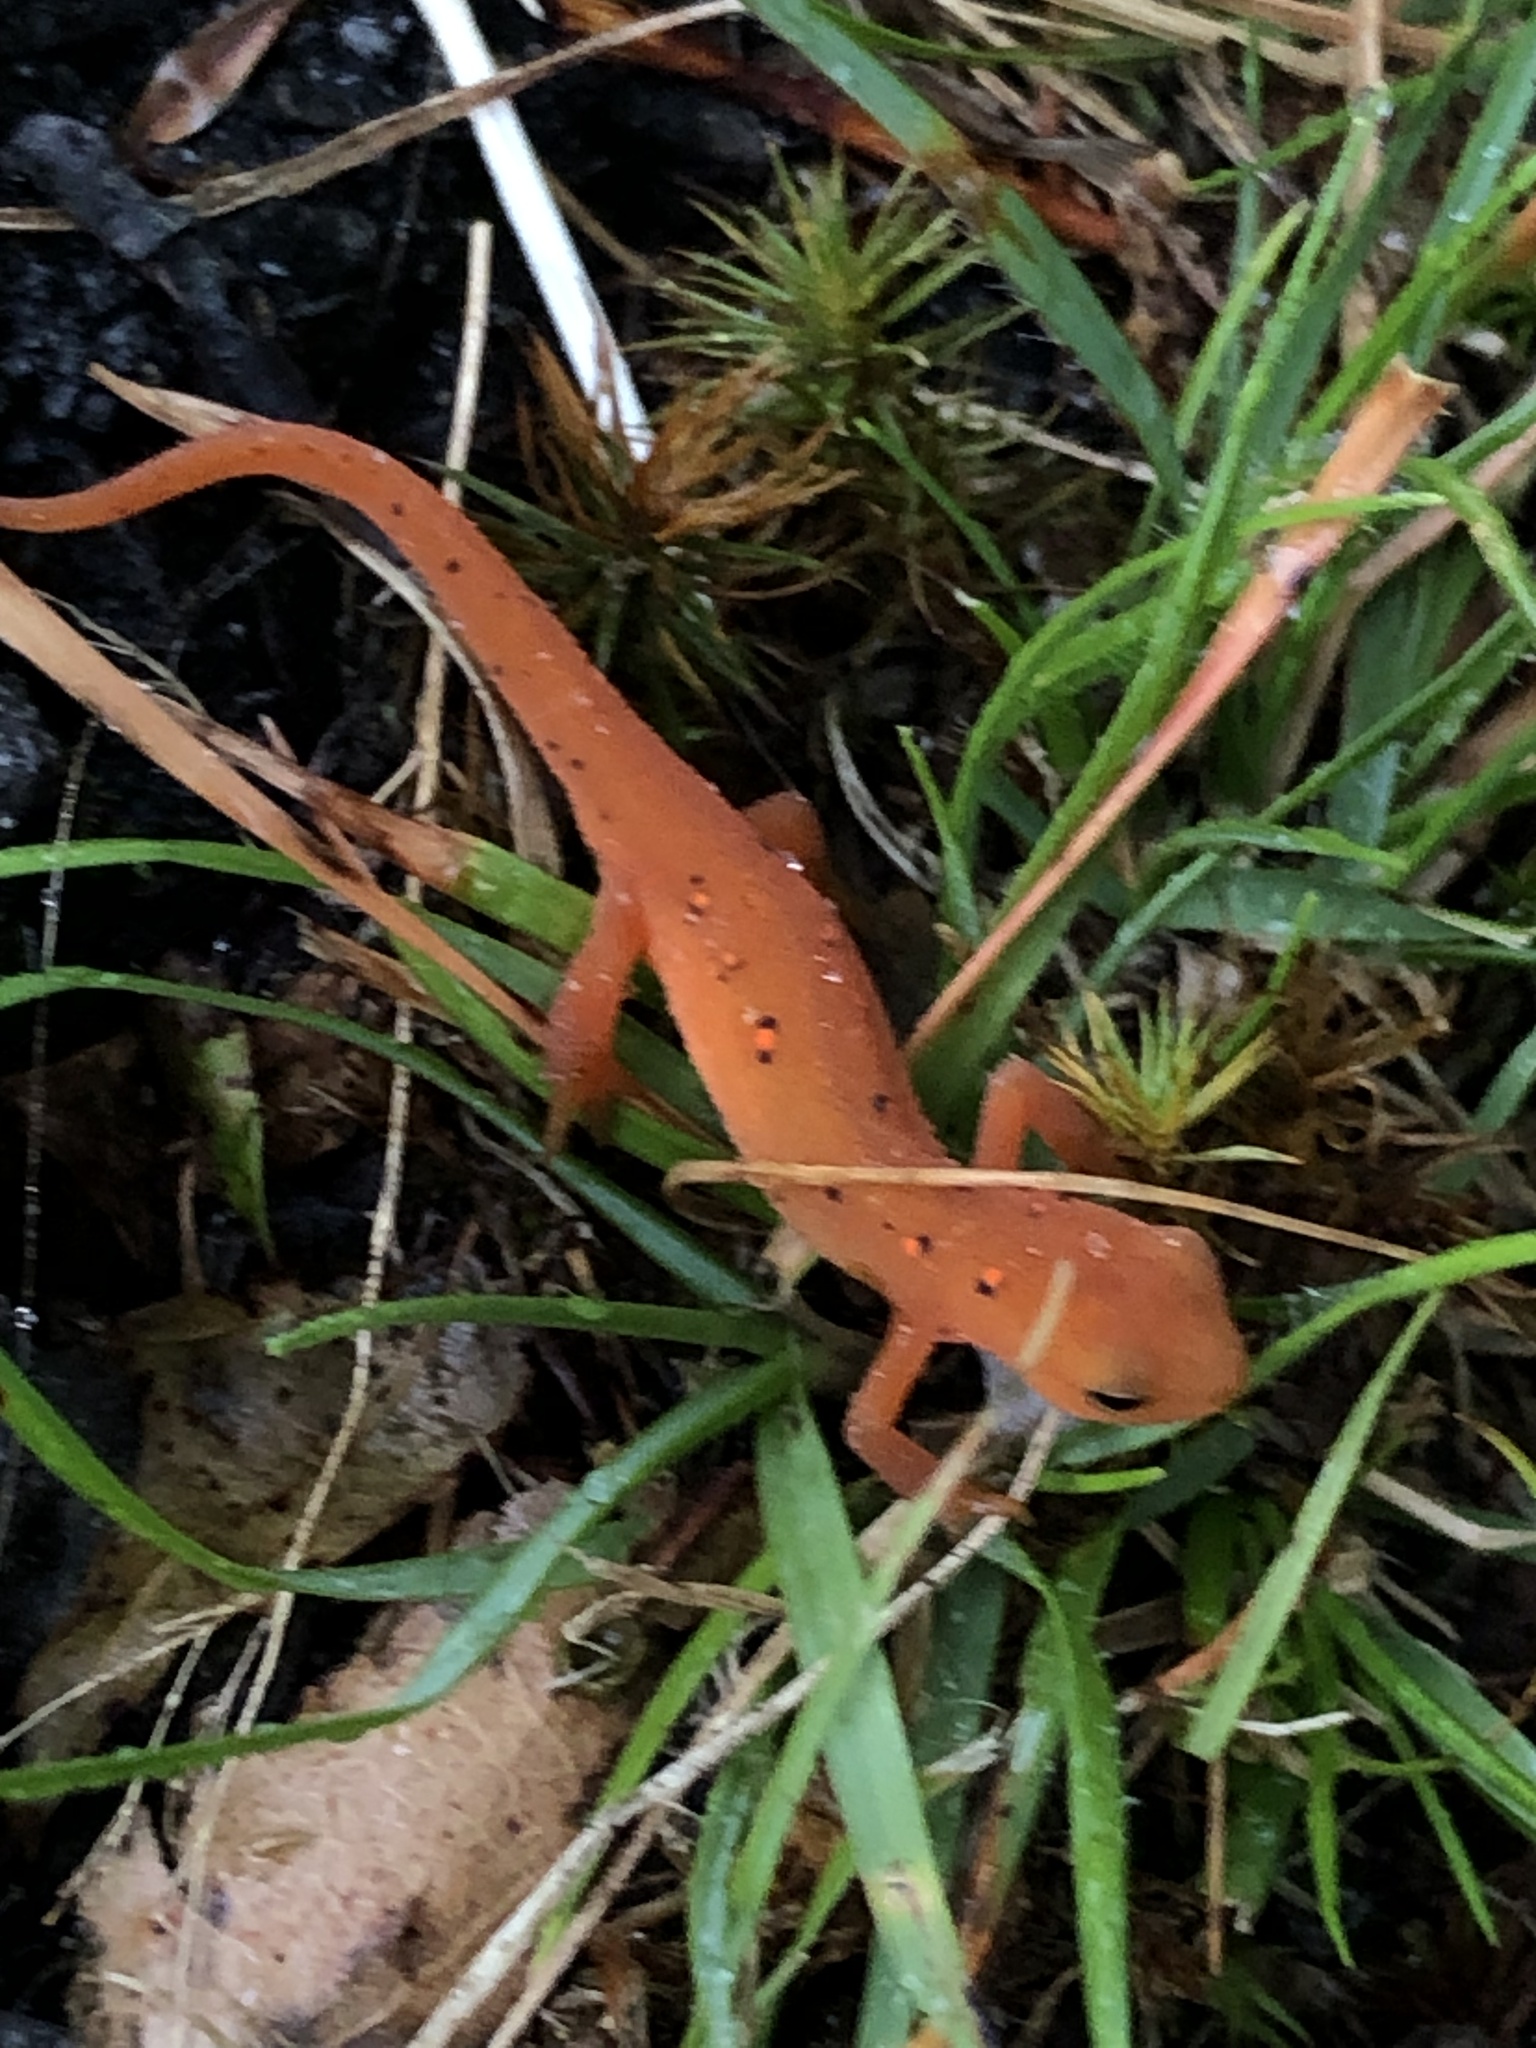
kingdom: Animalia
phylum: Chordata
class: Amphibia
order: Caudata
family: Salamandridae
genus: Notophthalmus
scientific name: Notophthalmus viridescens
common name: Eastern newt
